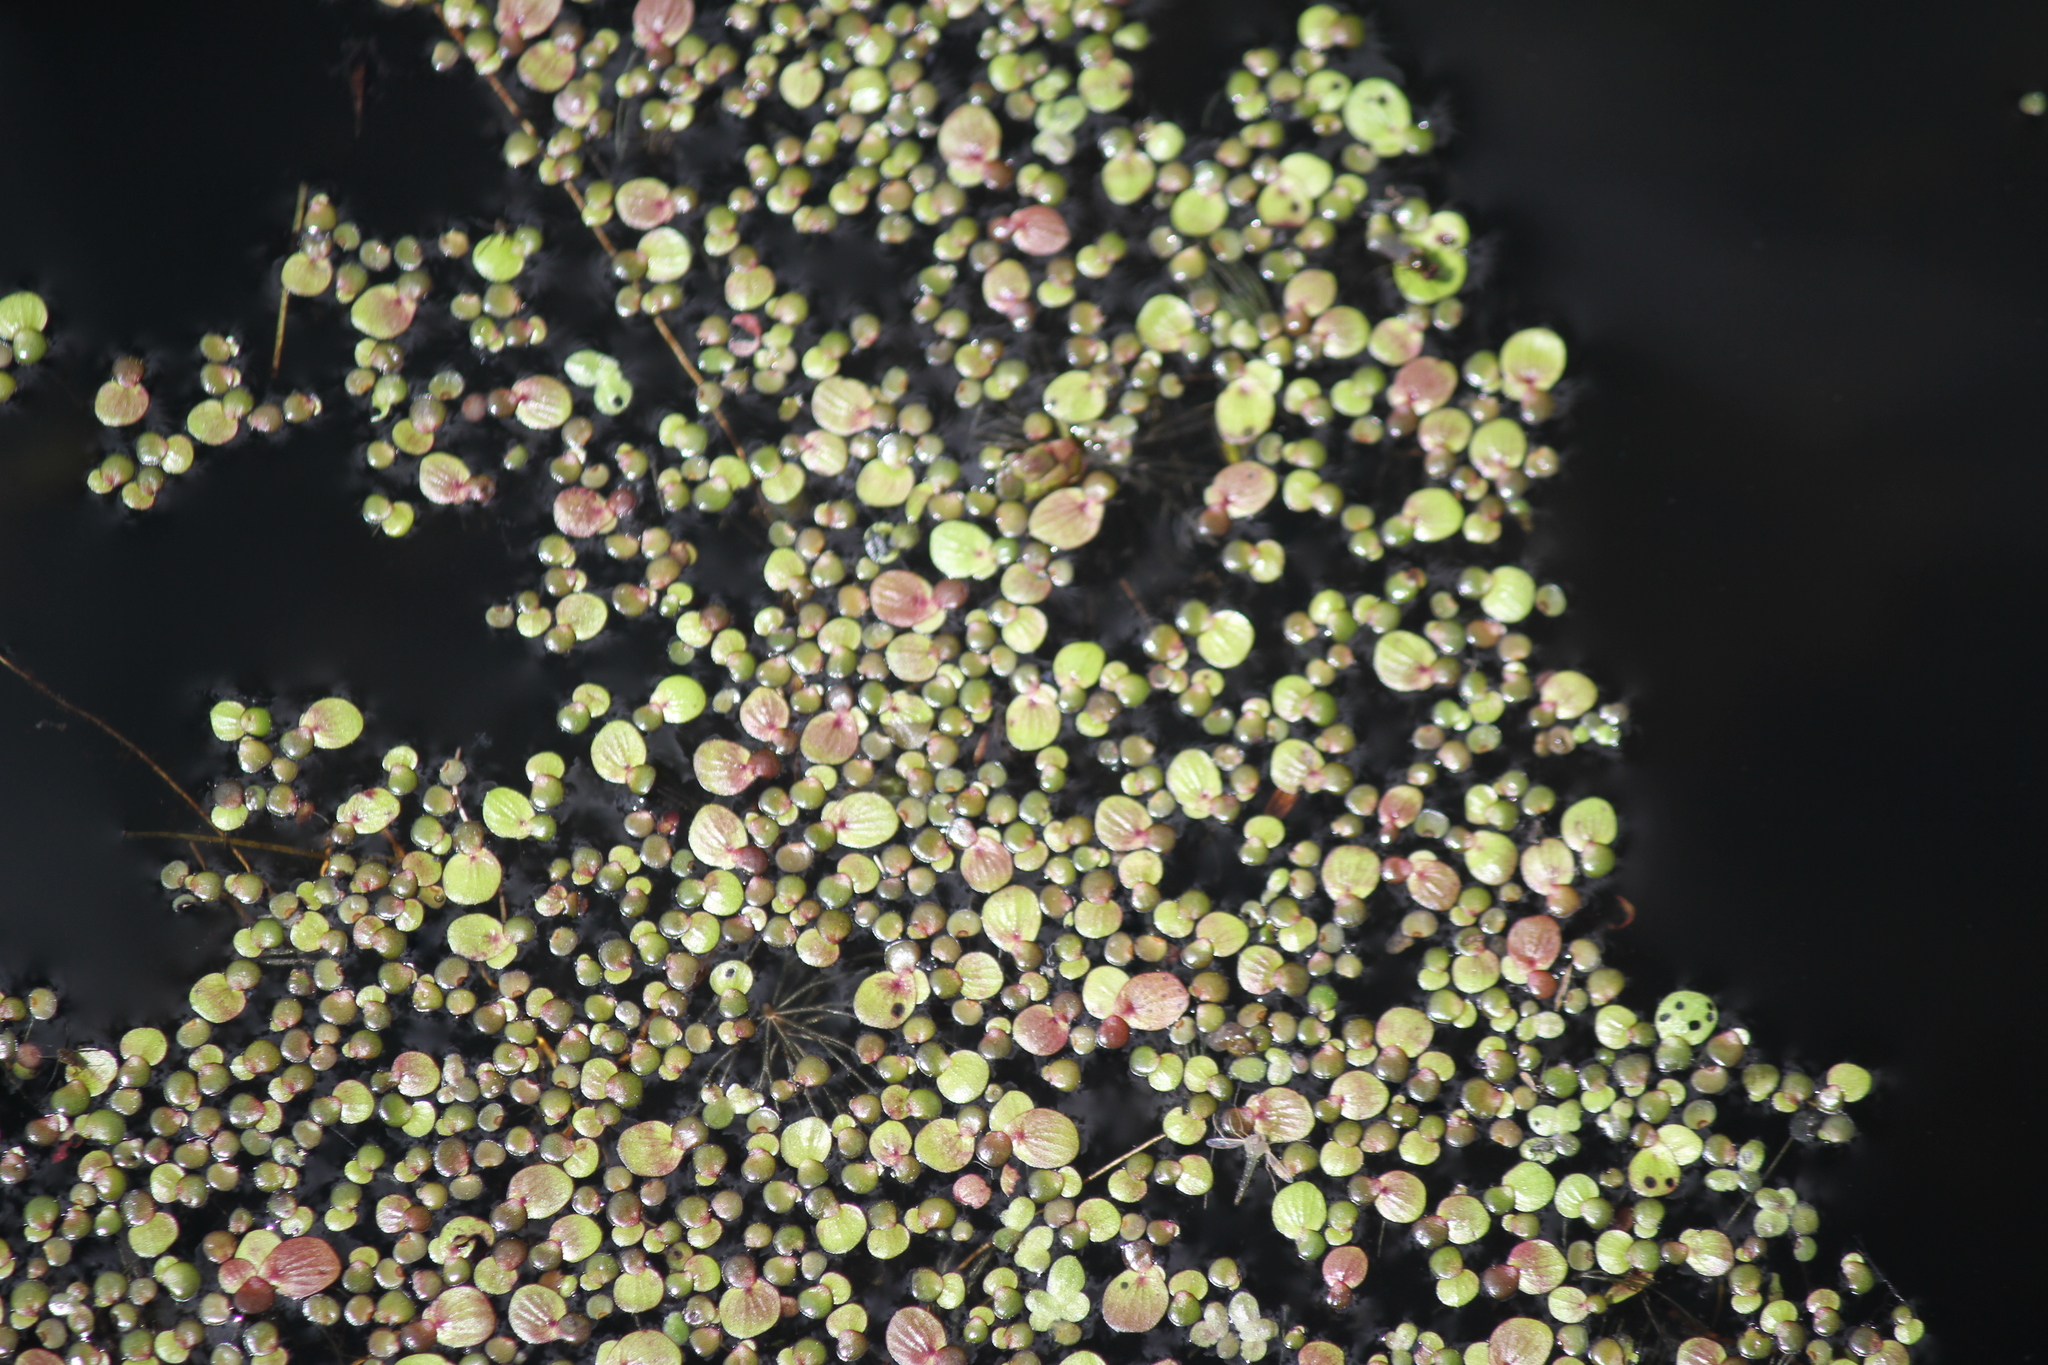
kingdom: Plantae
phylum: Tracheophyta
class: Liliopsida
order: Alismatales
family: Araceae
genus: Spirodela
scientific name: Spirodela polyrhiza
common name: Great duckweed
